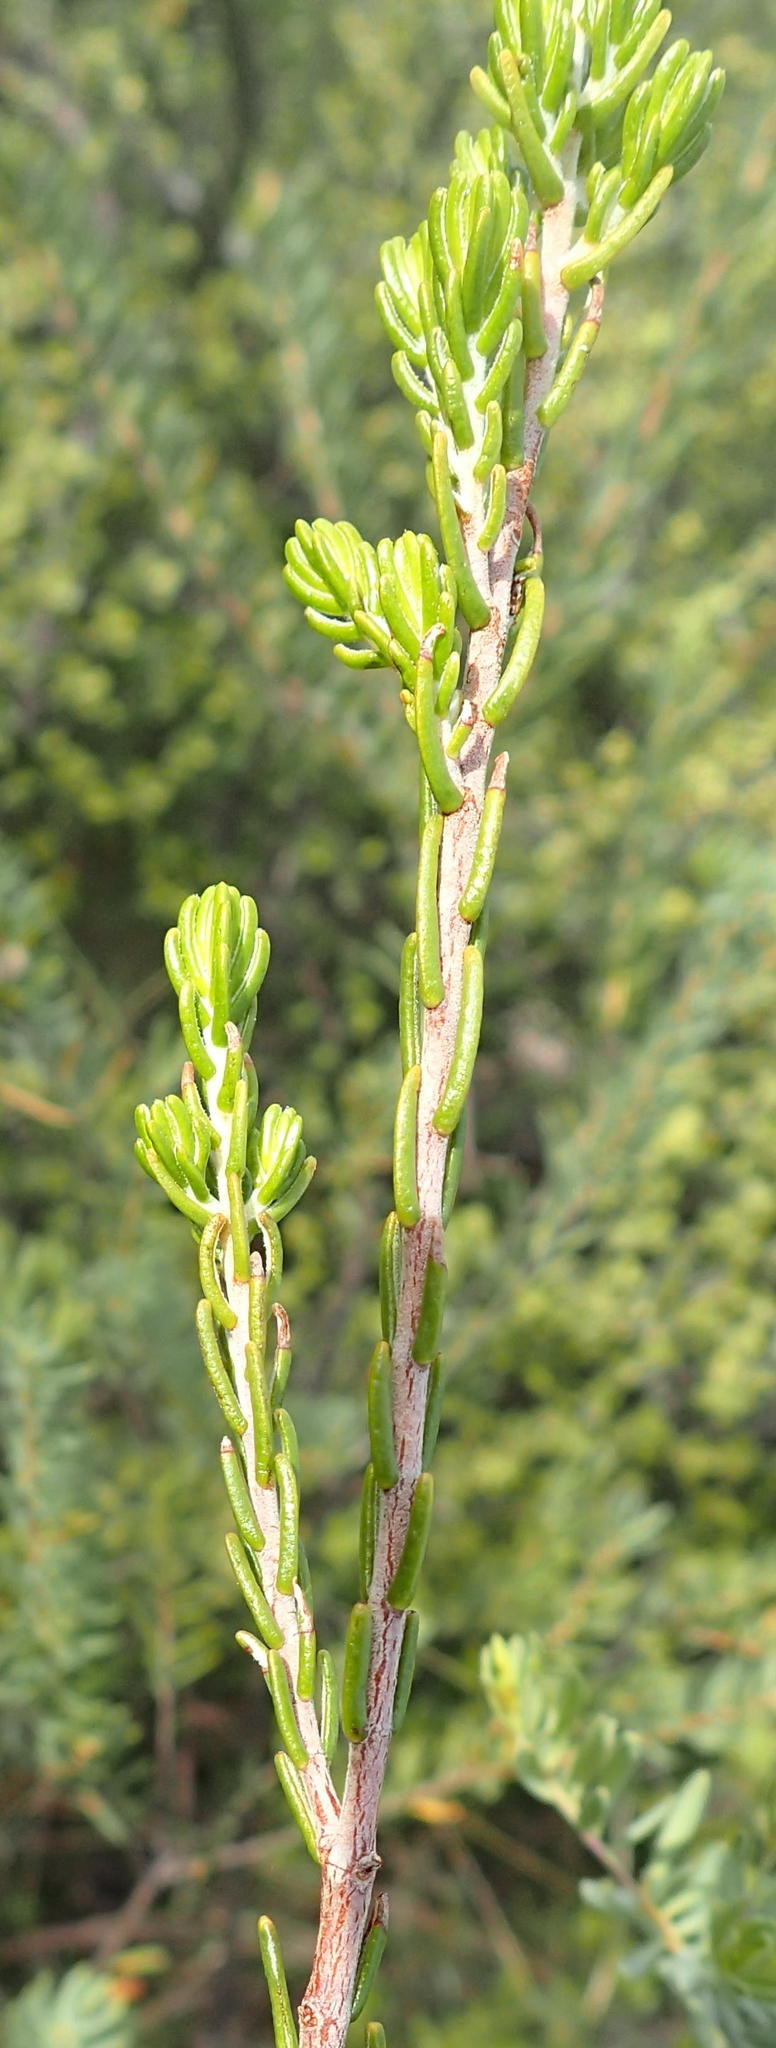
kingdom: Plantae
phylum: Tracheophyta
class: Magnoliopsida
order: Malvales
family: Thymelaeaceae
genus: Passerina
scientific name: Passerina obtusifolia
